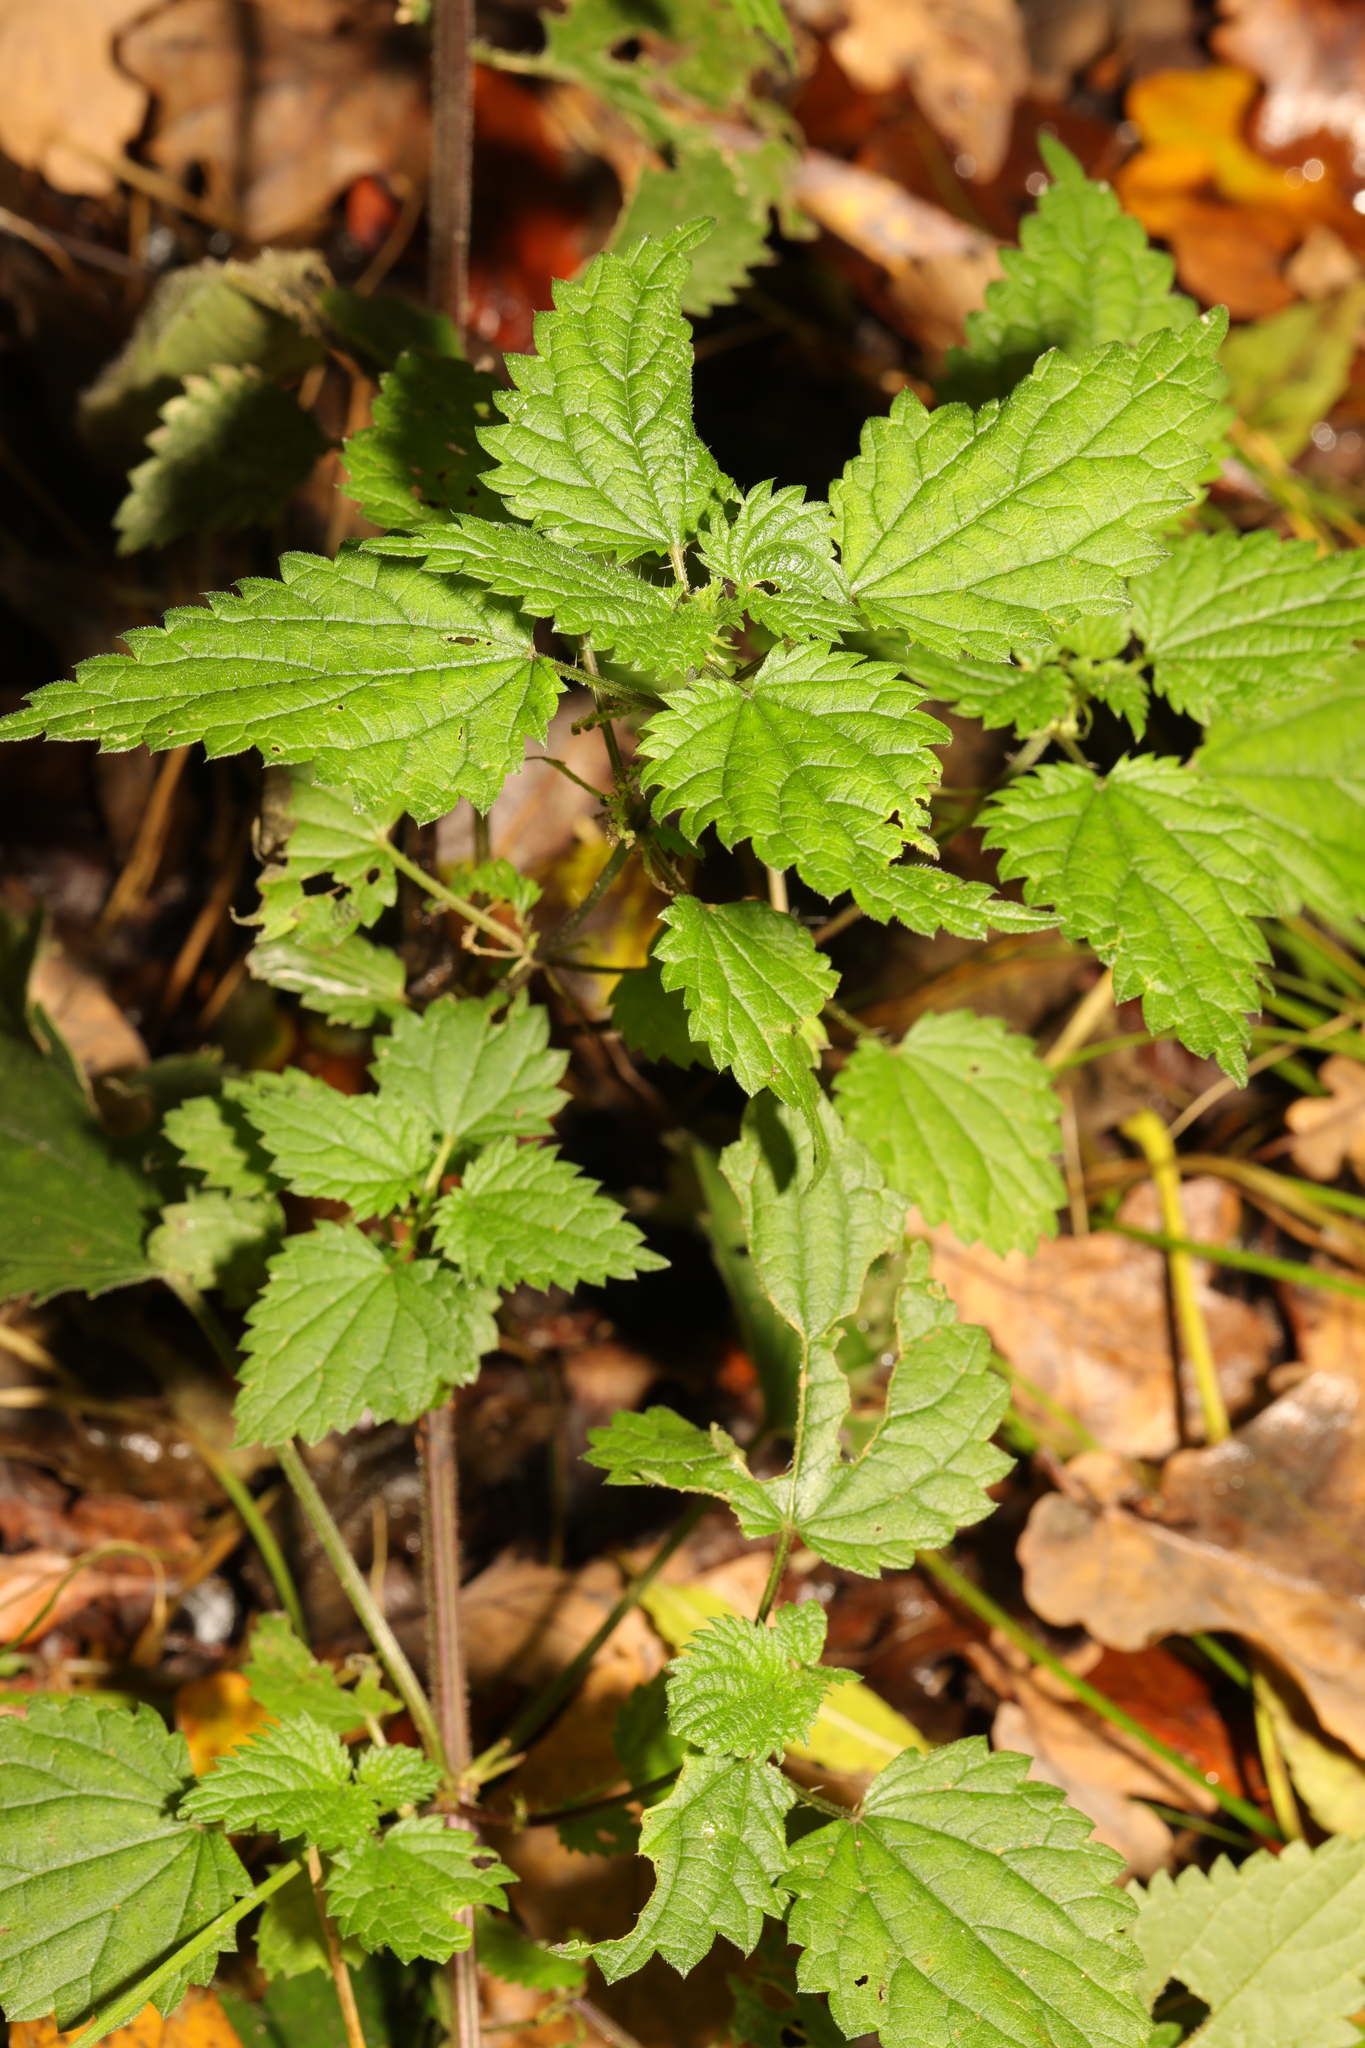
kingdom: Plantae
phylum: Tracheophyta
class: Magnoliopsida
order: Rosales
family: Urticaceae
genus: Urtica
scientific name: Urtica dioica
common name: Common nettle
